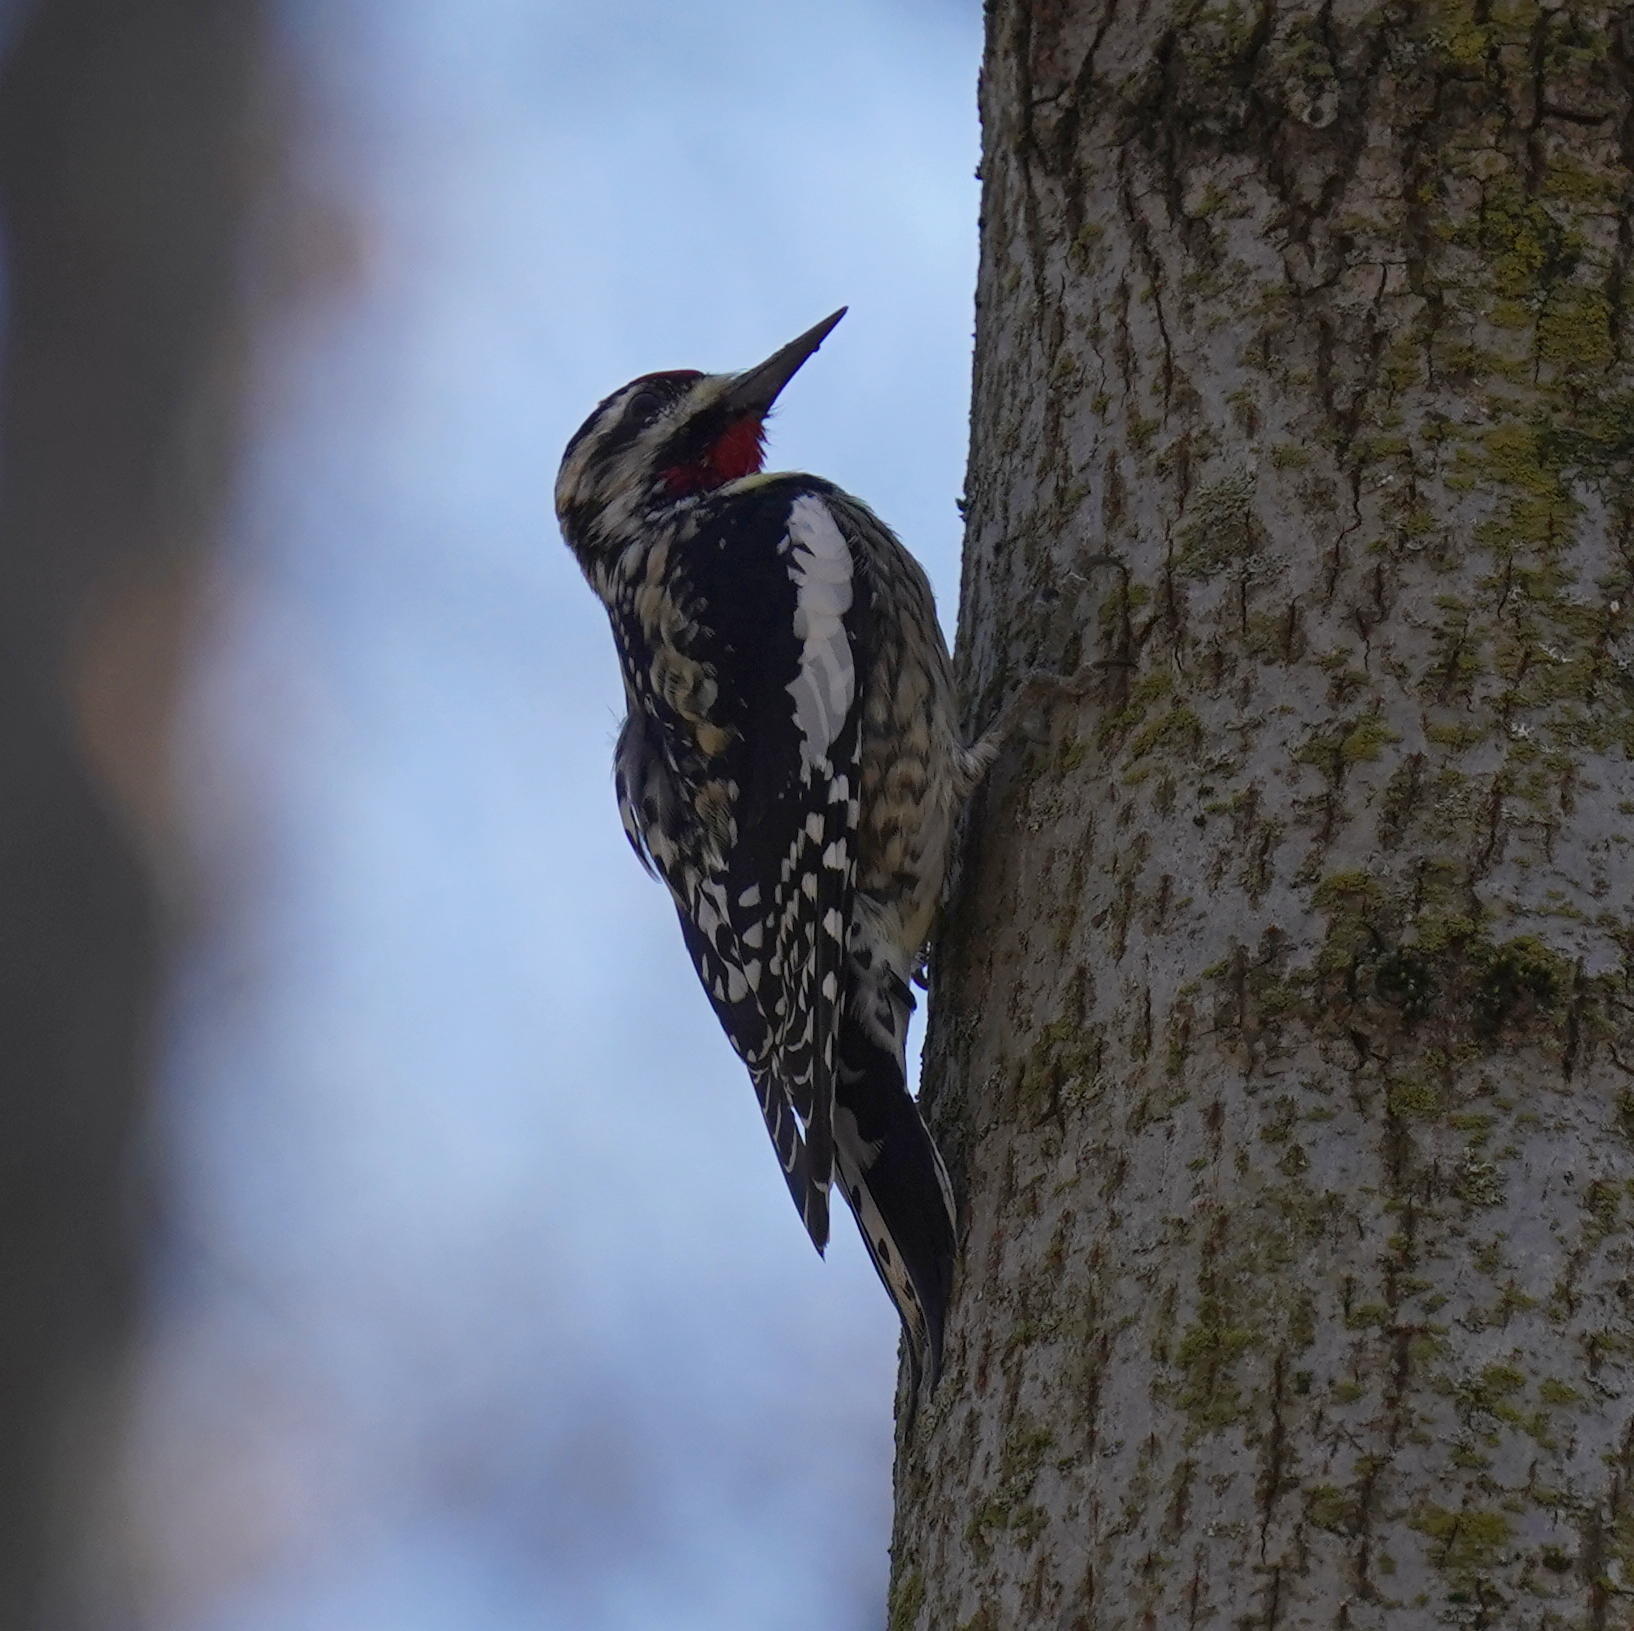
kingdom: Animalia
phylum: Chordata
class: Aves
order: Piciformes
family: Picidae
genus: Sphyrapicus
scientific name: Sphyrapicus varius
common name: Yellow-bellied sapsucker
